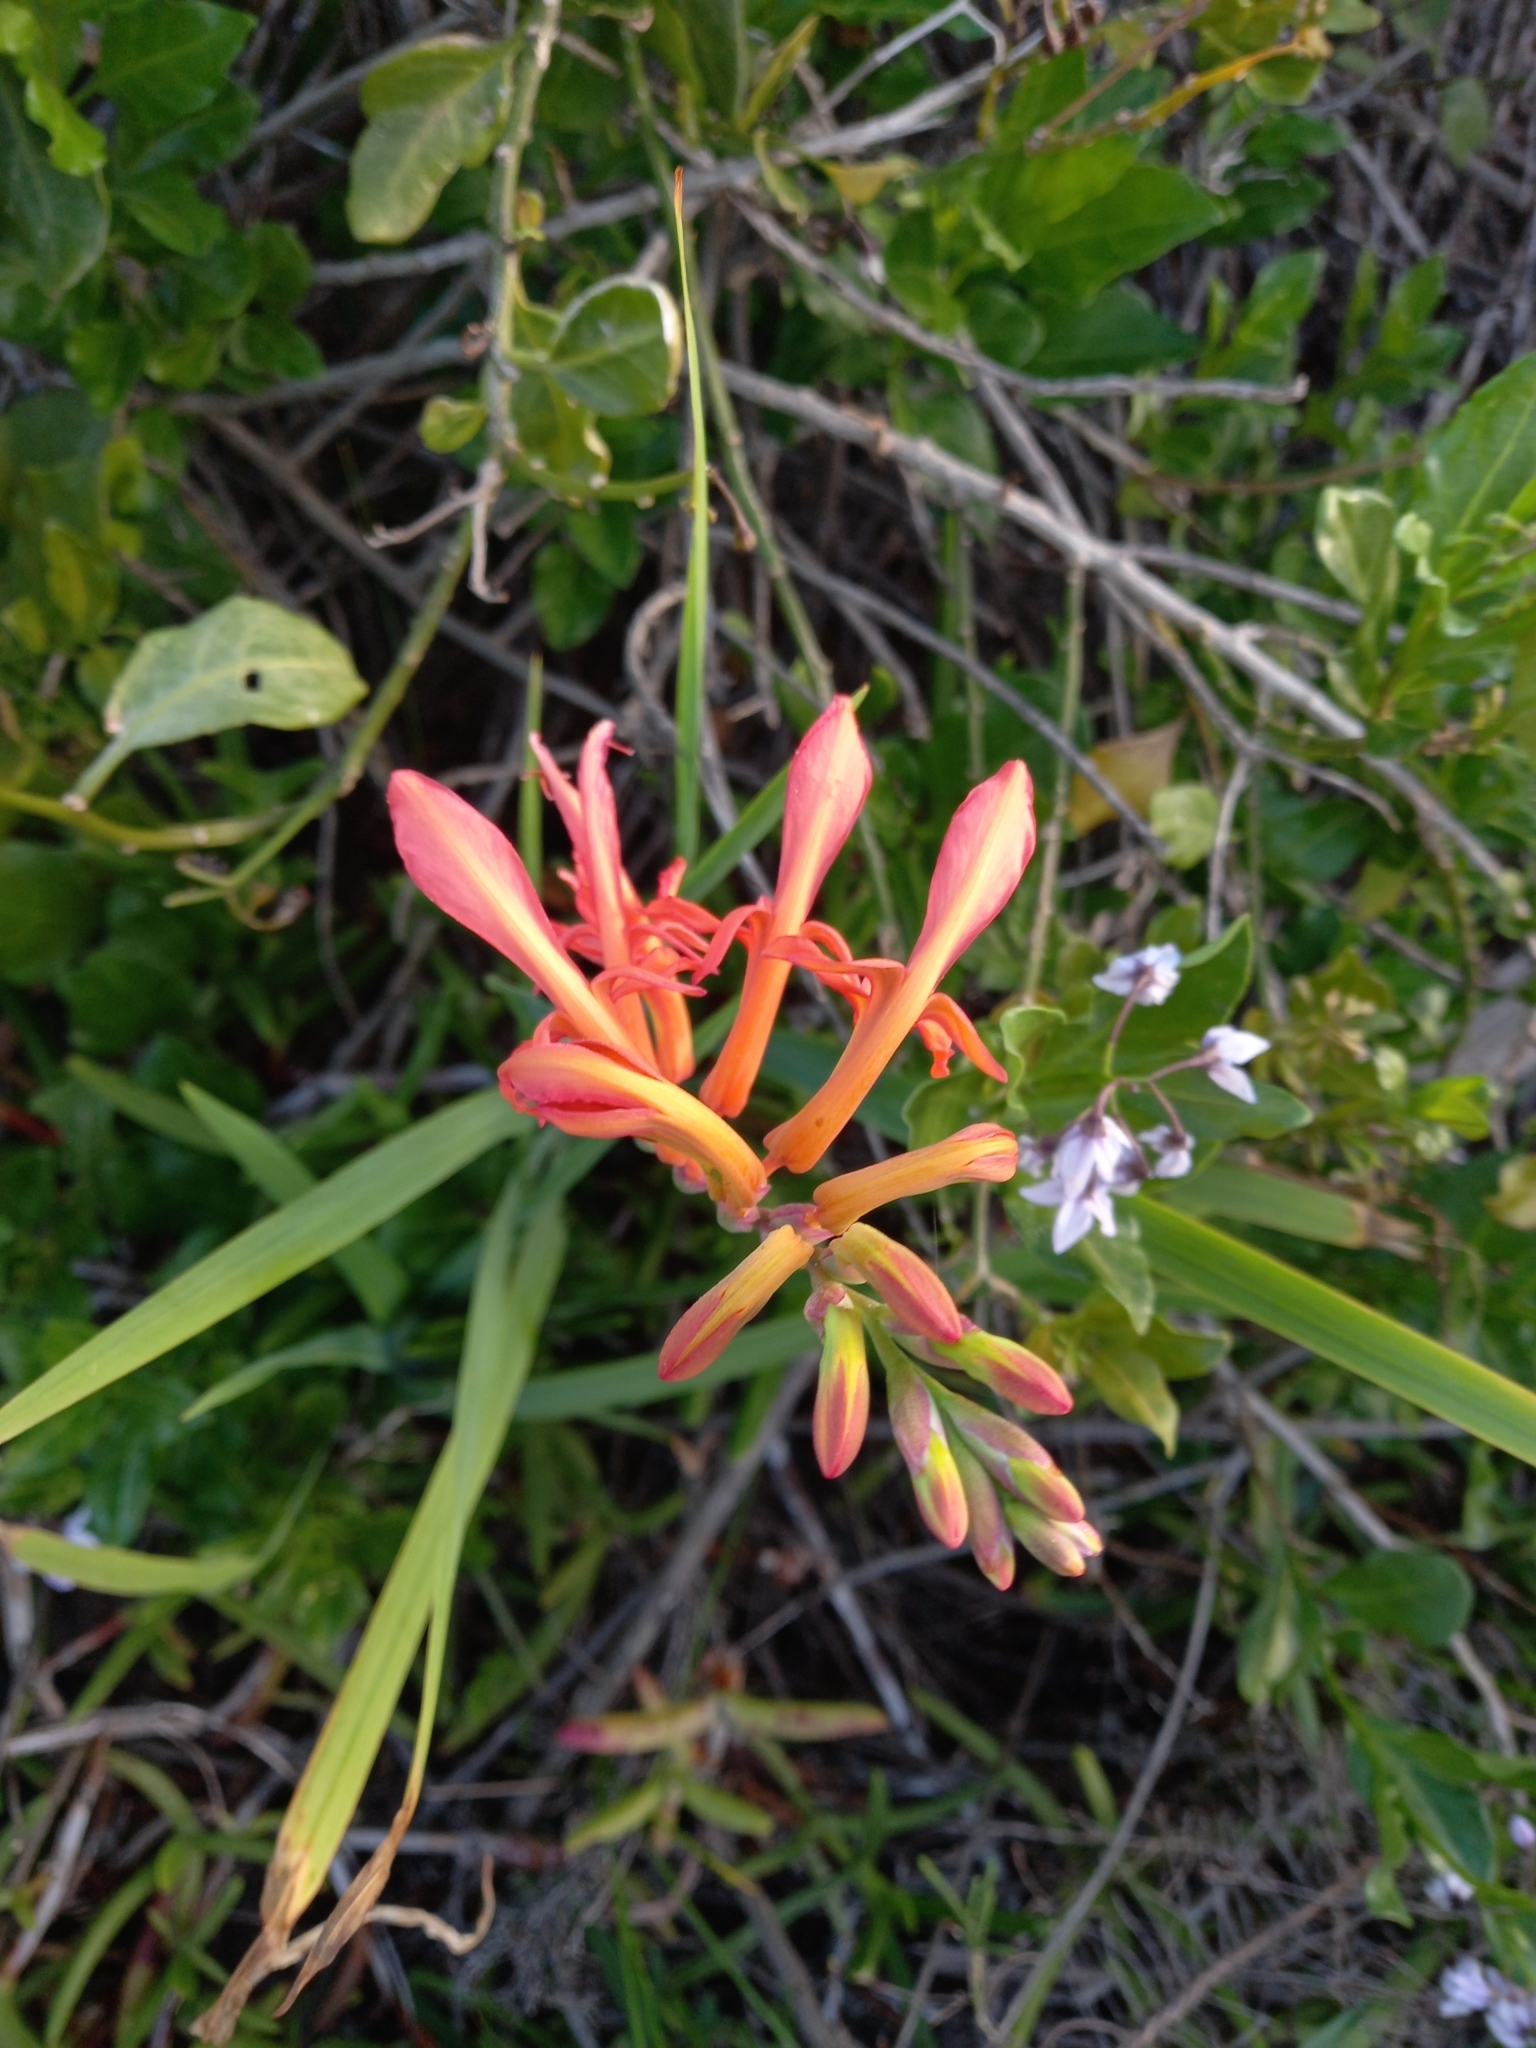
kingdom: Plantae
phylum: Tracheophyta
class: Liliopsida
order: Asparagales
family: Iridaceae
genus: Chasmanthe
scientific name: Chasmanthe aethiopica
